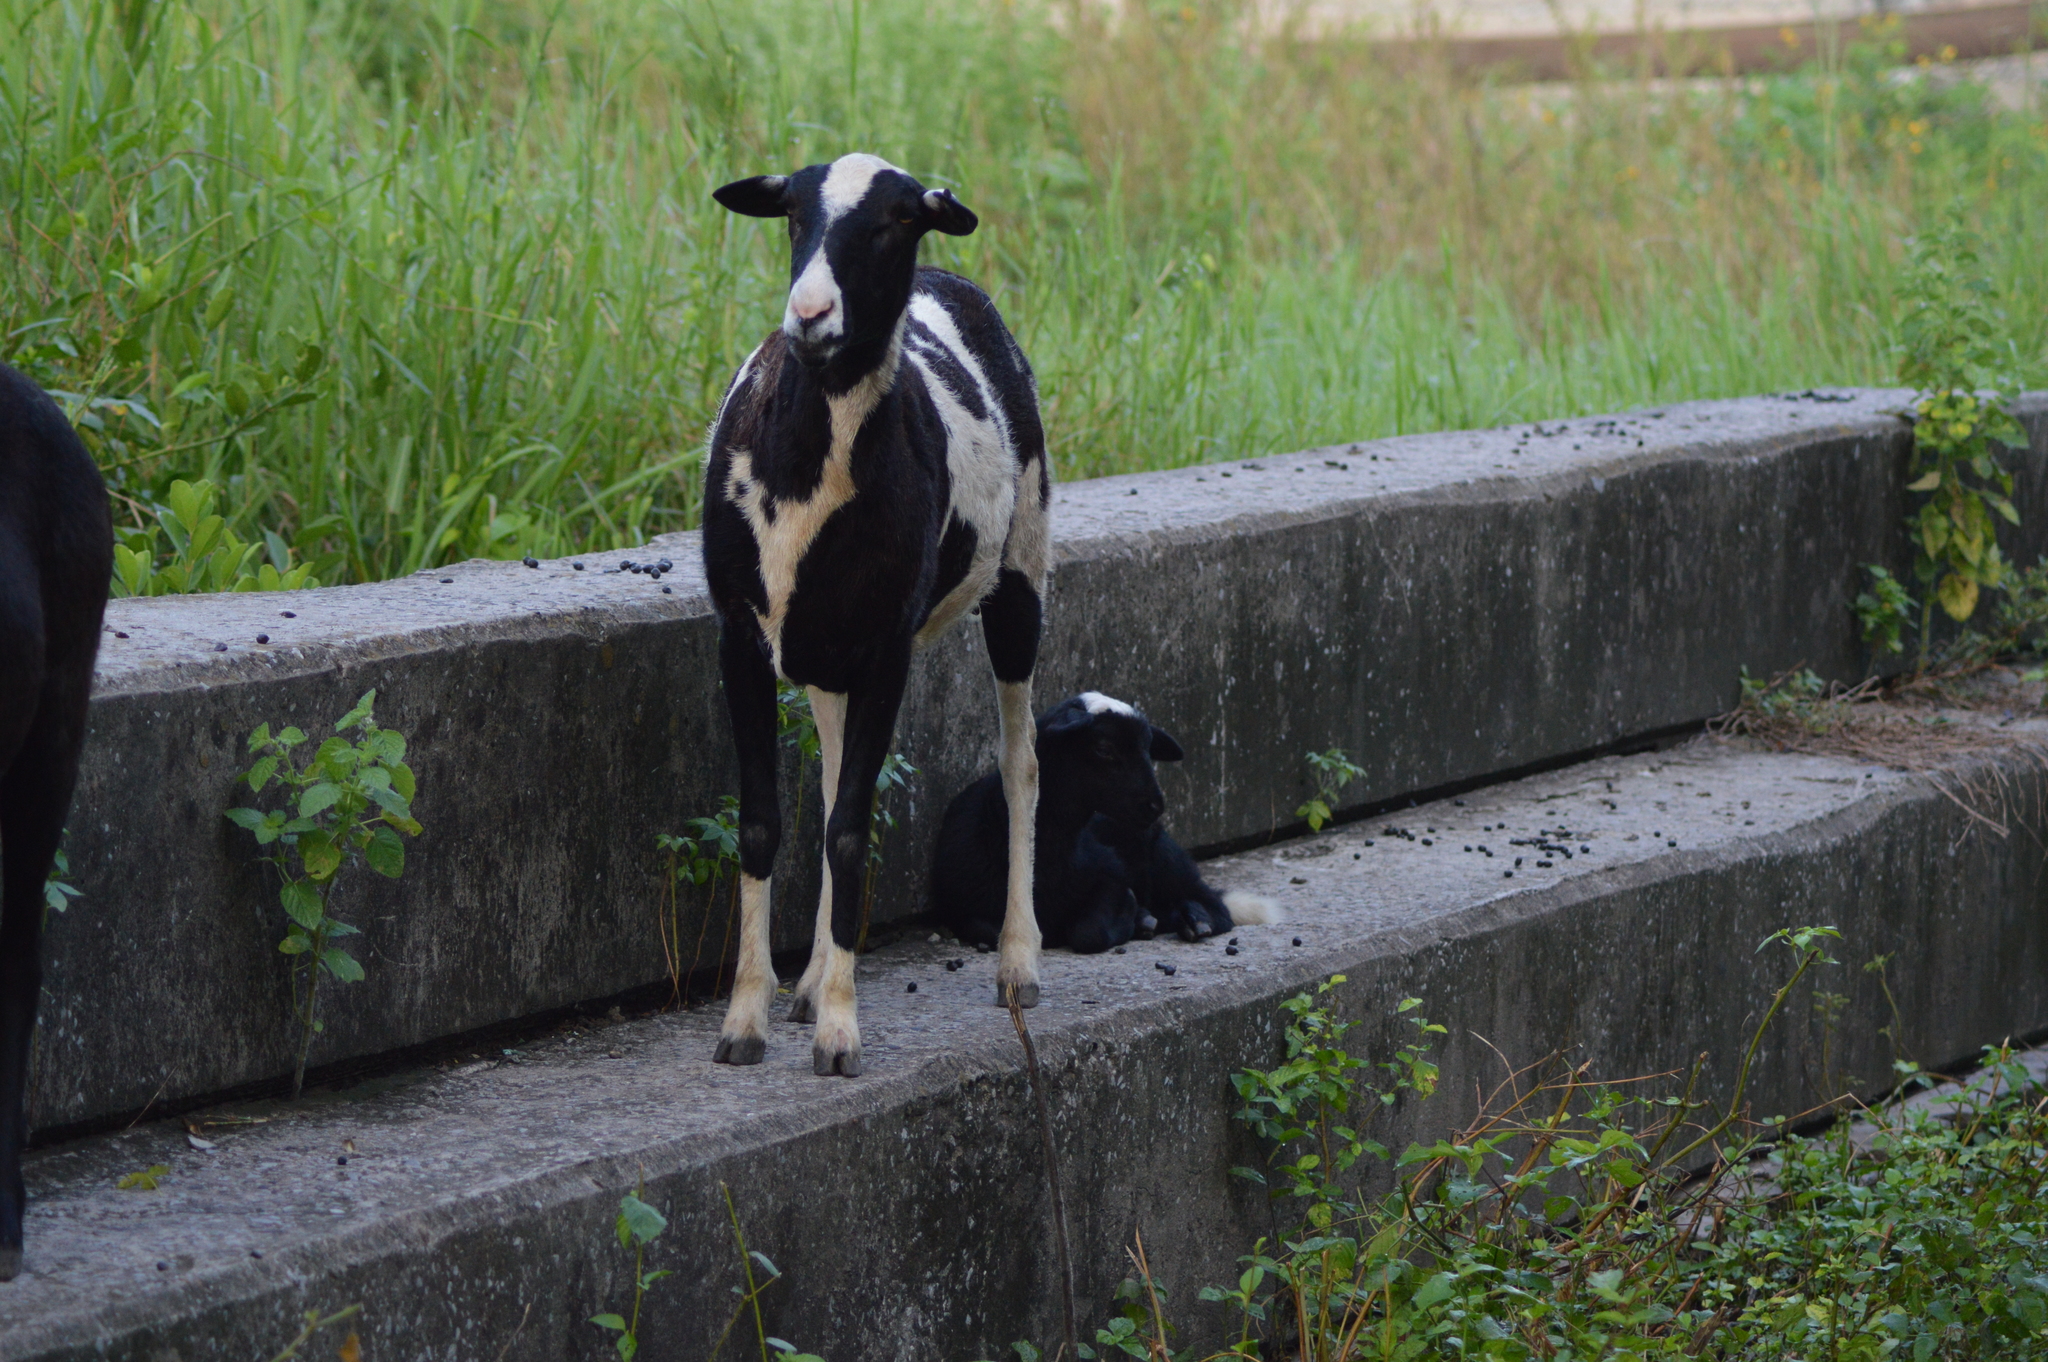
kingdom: Animalia
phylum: Chordata
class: Mammalia
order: Artiodactyla
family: Bovidae
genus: Capra
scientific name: Capra hircus
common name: Domestic goat
